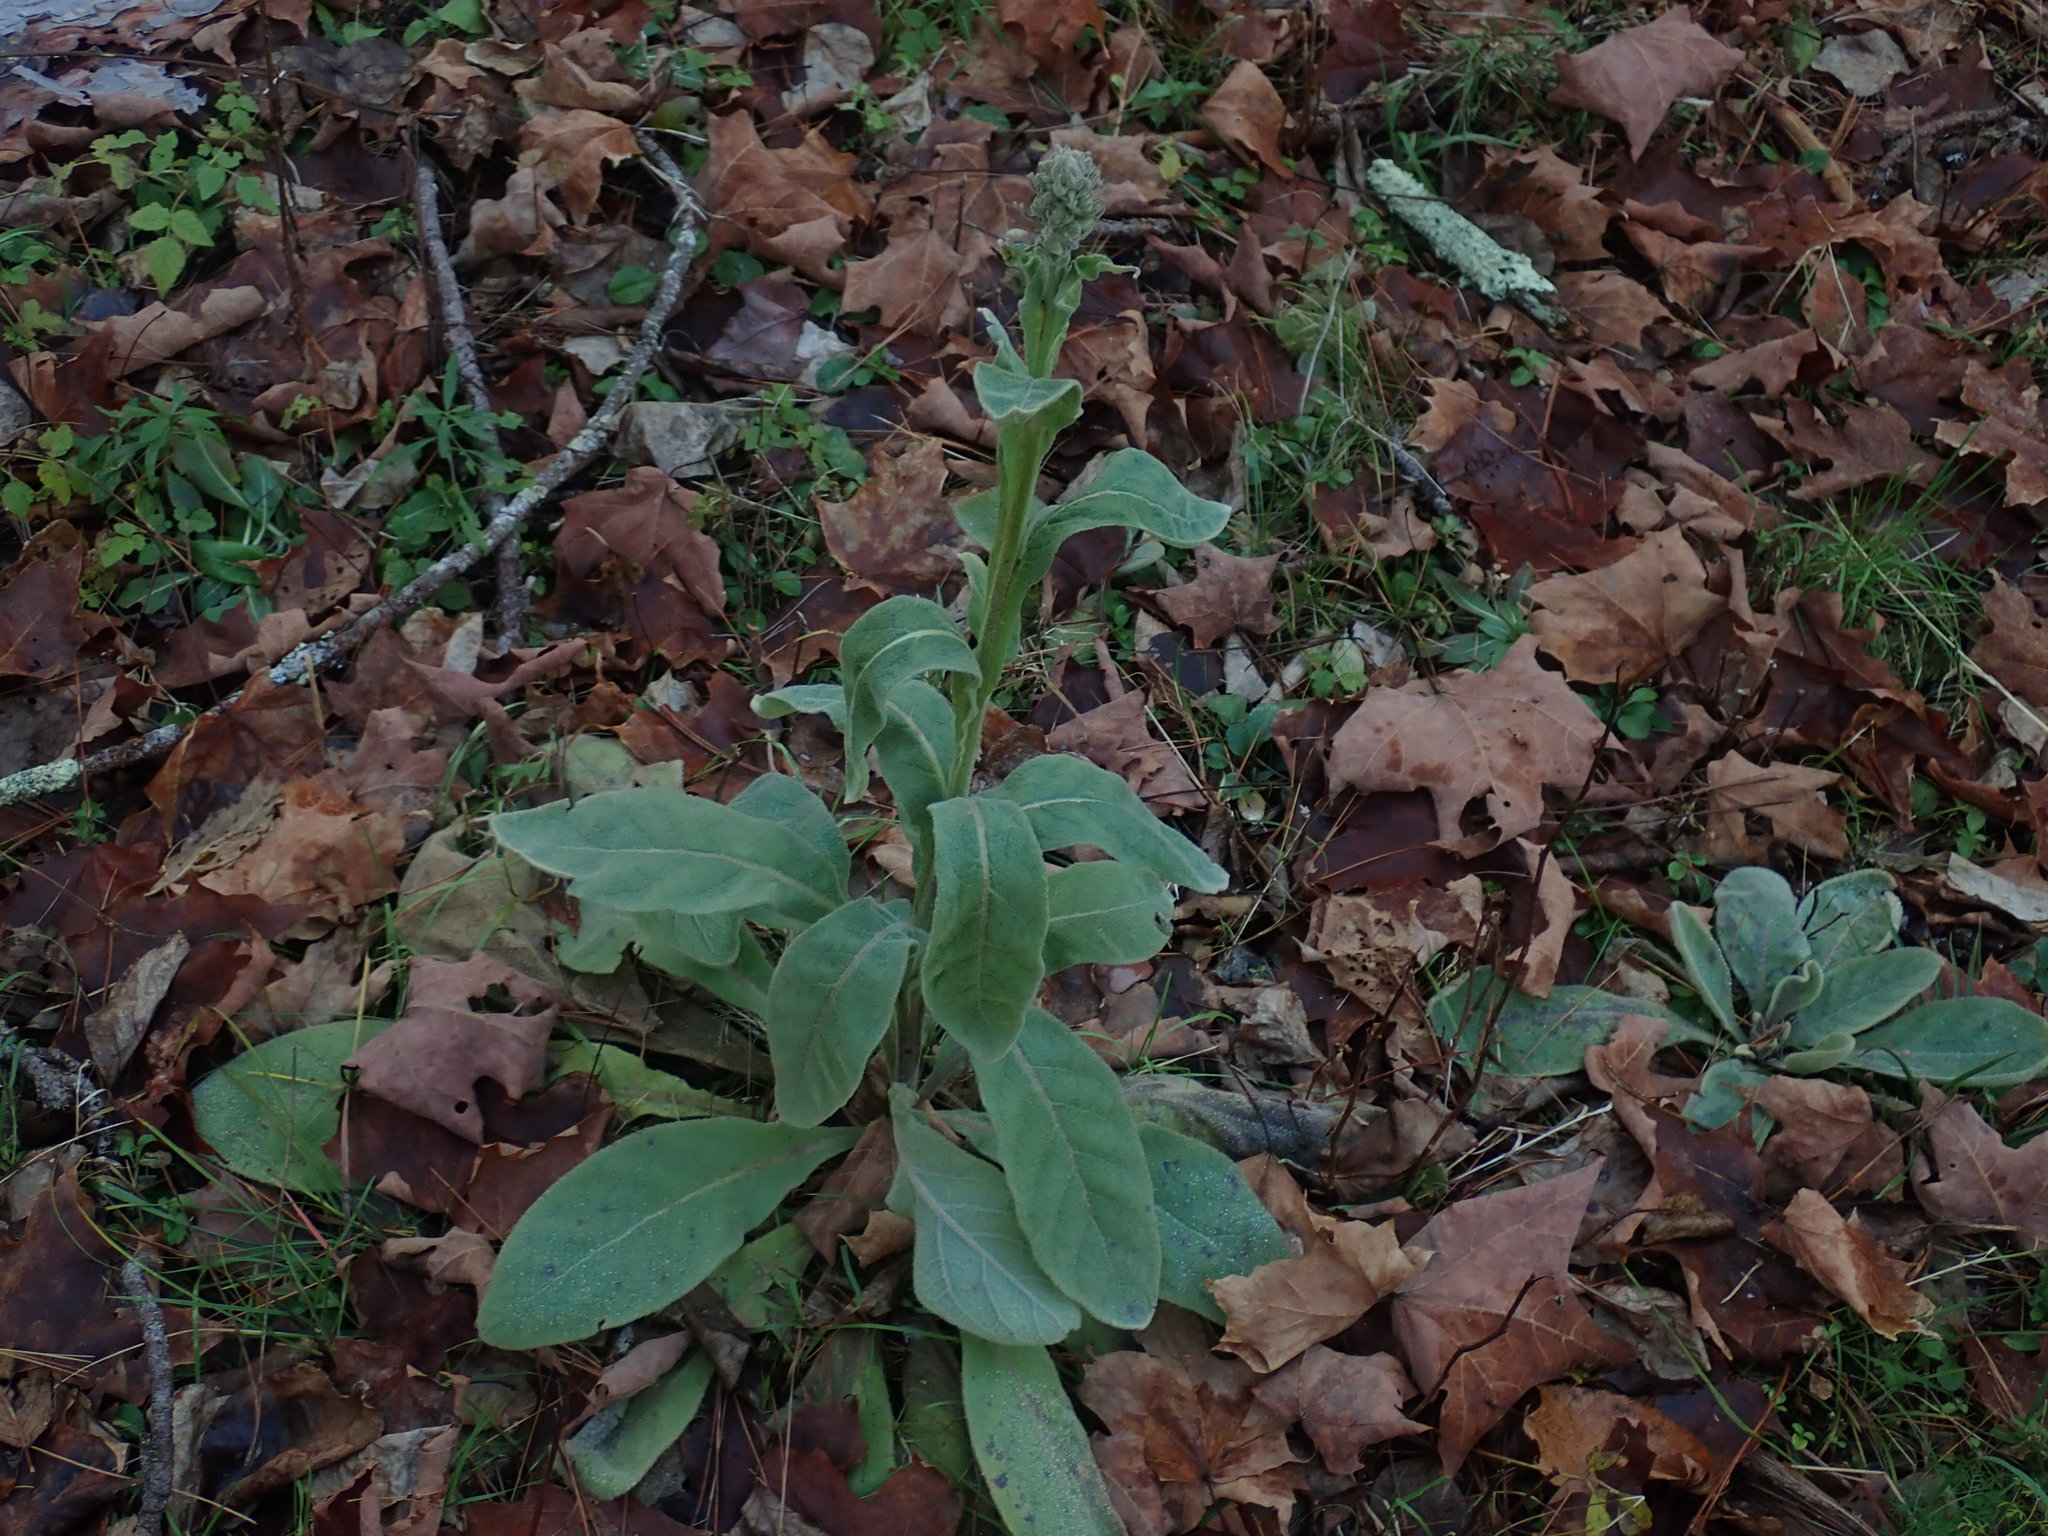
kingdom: Plantae
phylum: Tracheophyta
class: Magnoliopsida
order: Lamiales
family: Scrophulariaceae
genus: Verbascum
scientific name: Verbascum thapsus
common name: Common mullein
